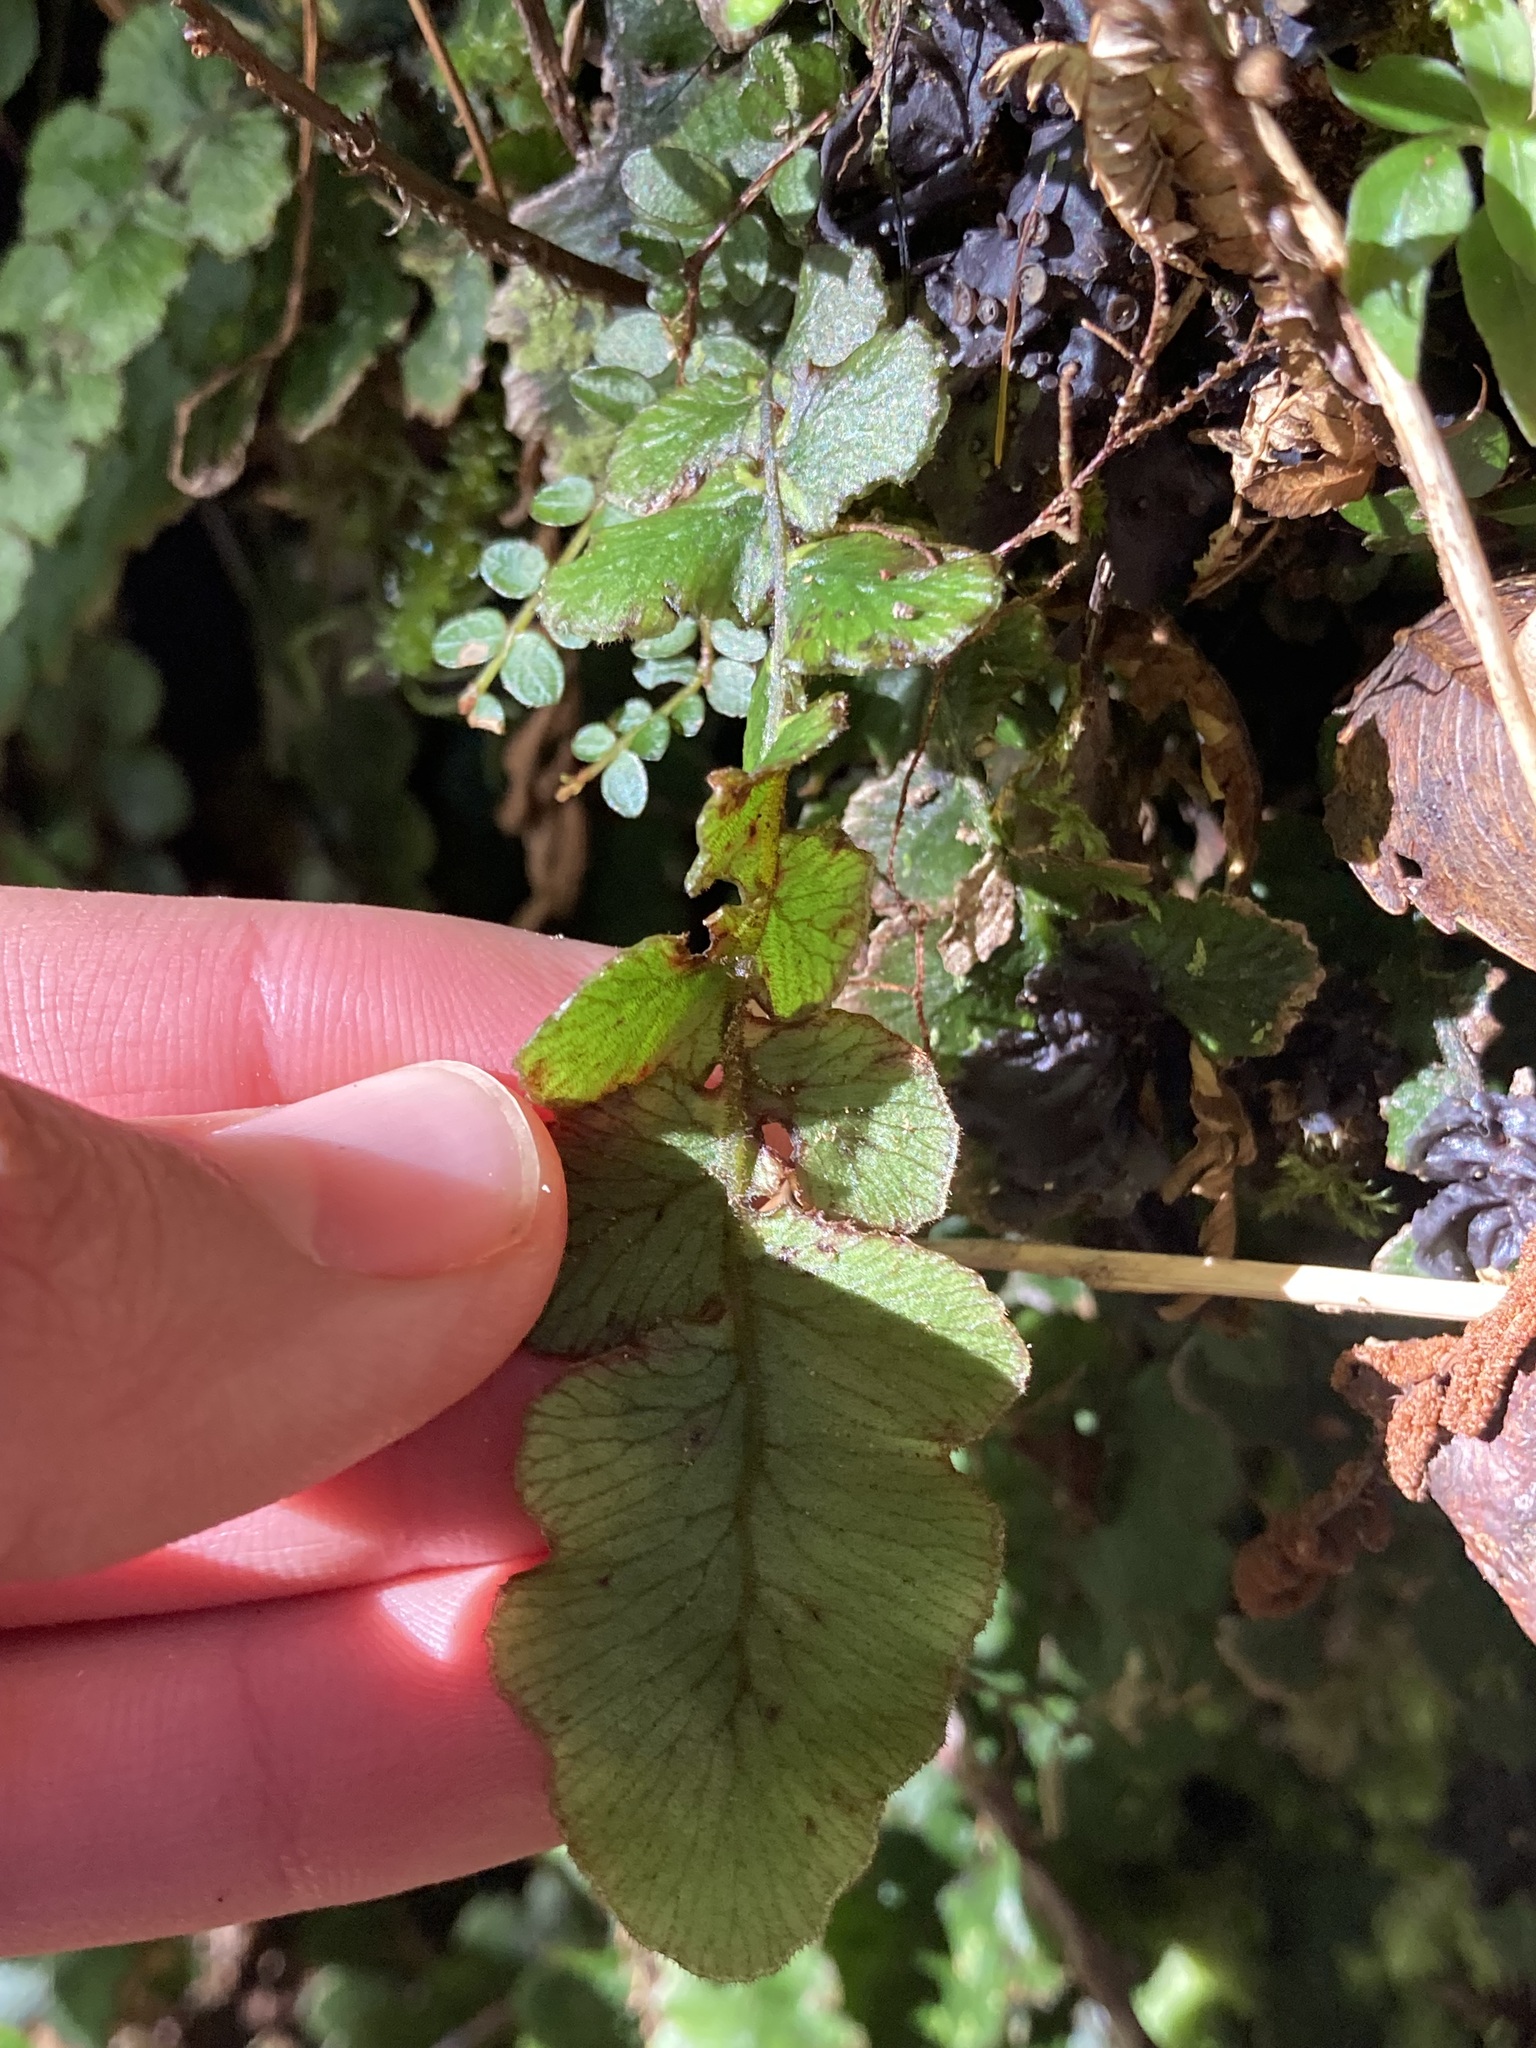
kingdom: Plantae
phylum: Tracheophyta
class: Polypodiopsida
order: Polypodiales
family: Blechnaceae
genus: Cranfillia
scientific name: Cranfillia nigra
